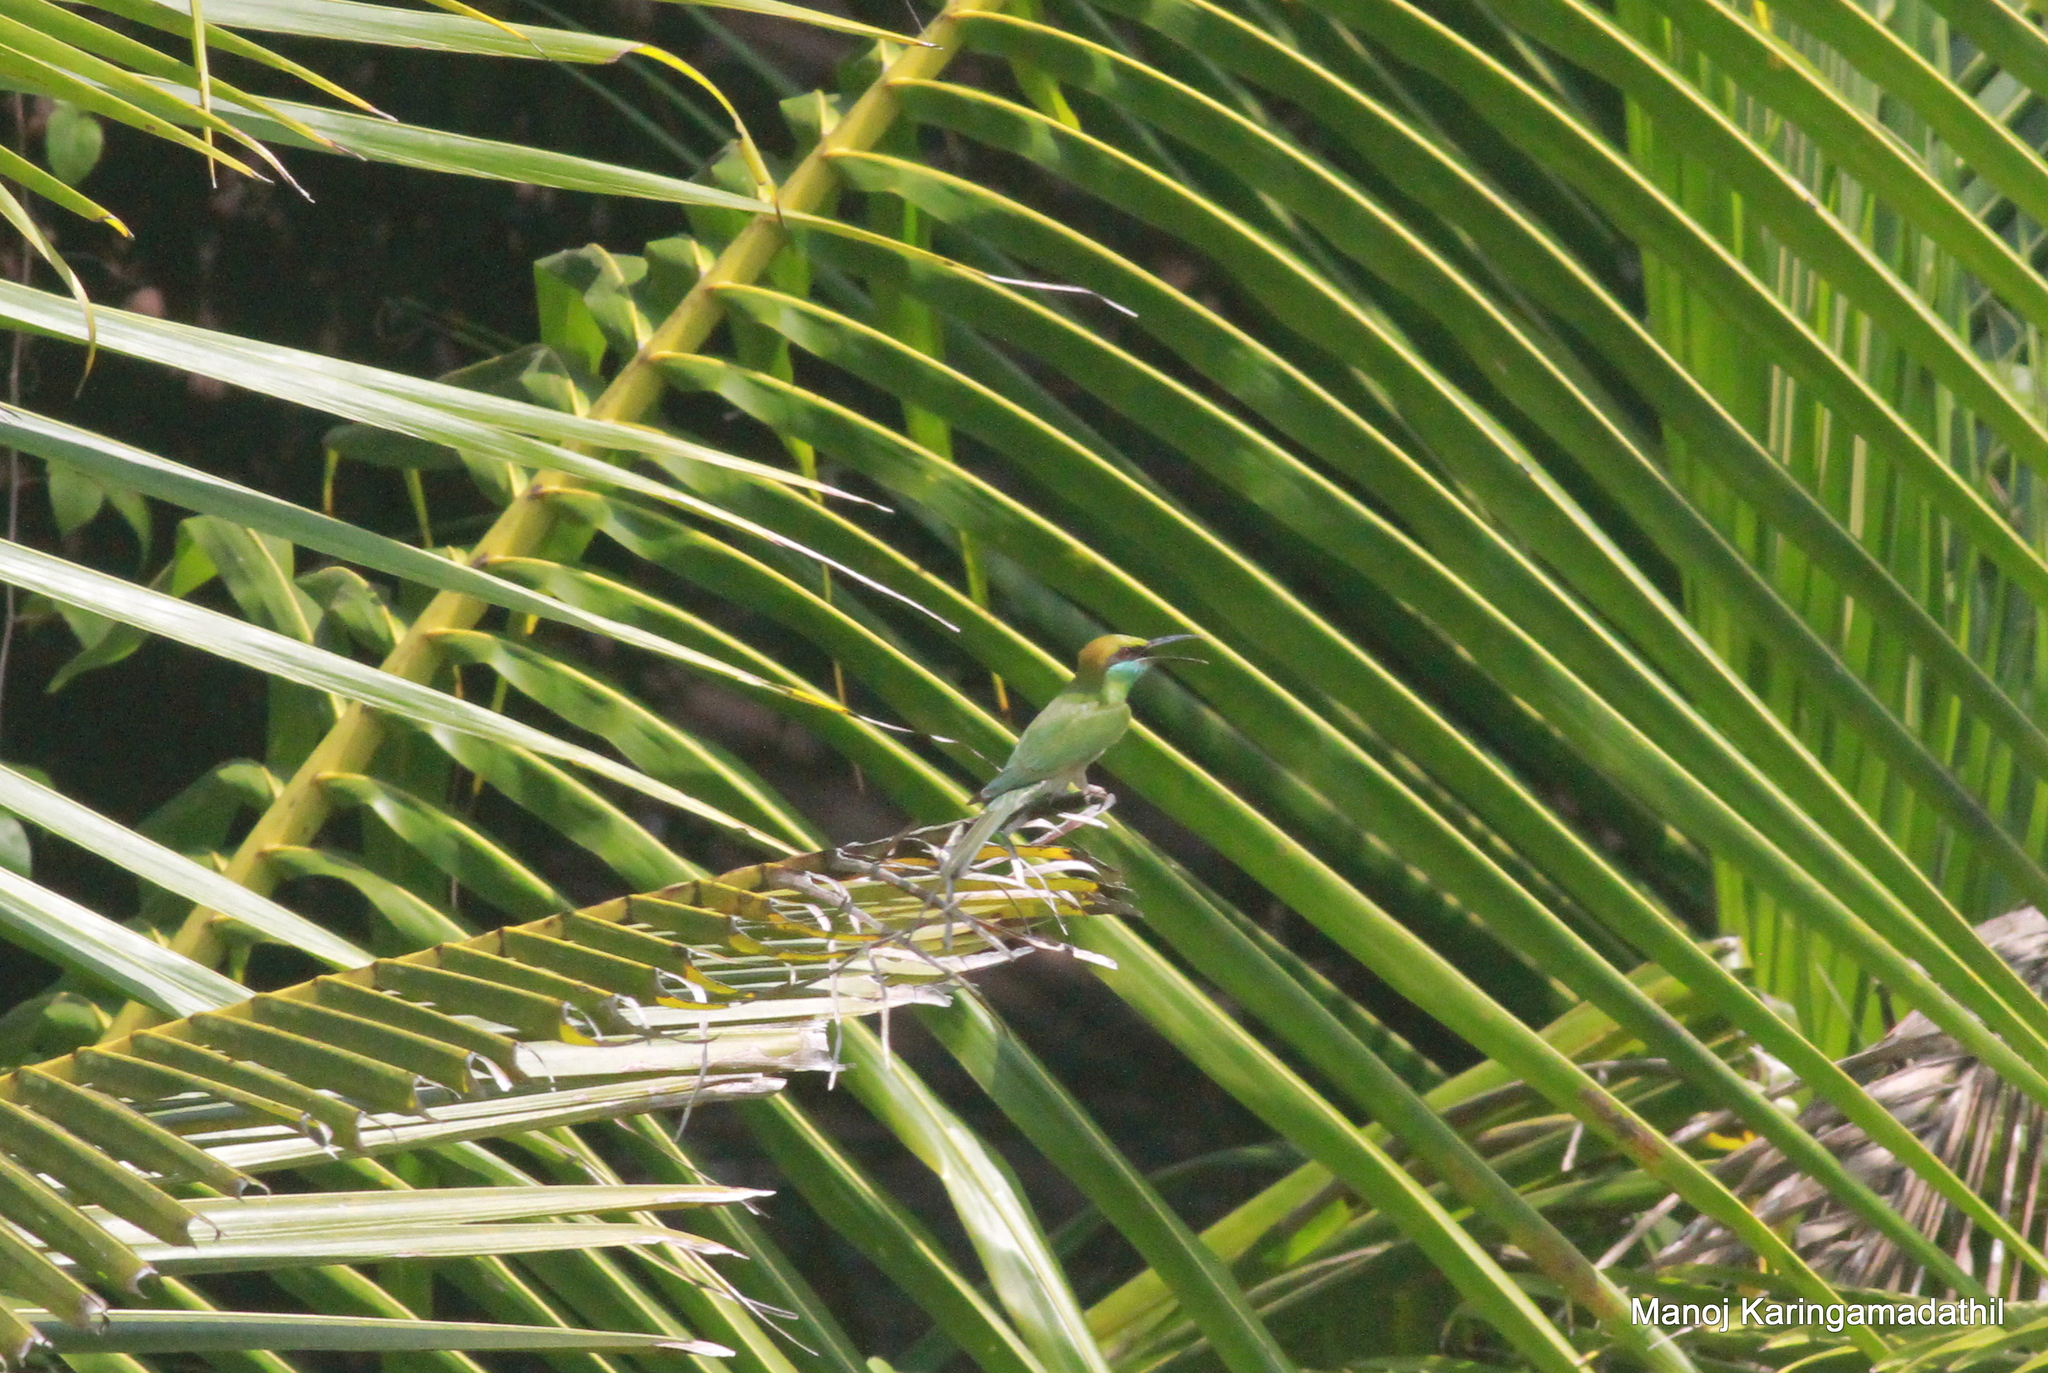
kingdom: Animalia
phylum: Chordata
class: Aves
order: Coraciiformes
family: Meropidae
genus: Merops
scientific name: Merops orientalis
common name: Green bee-eater
